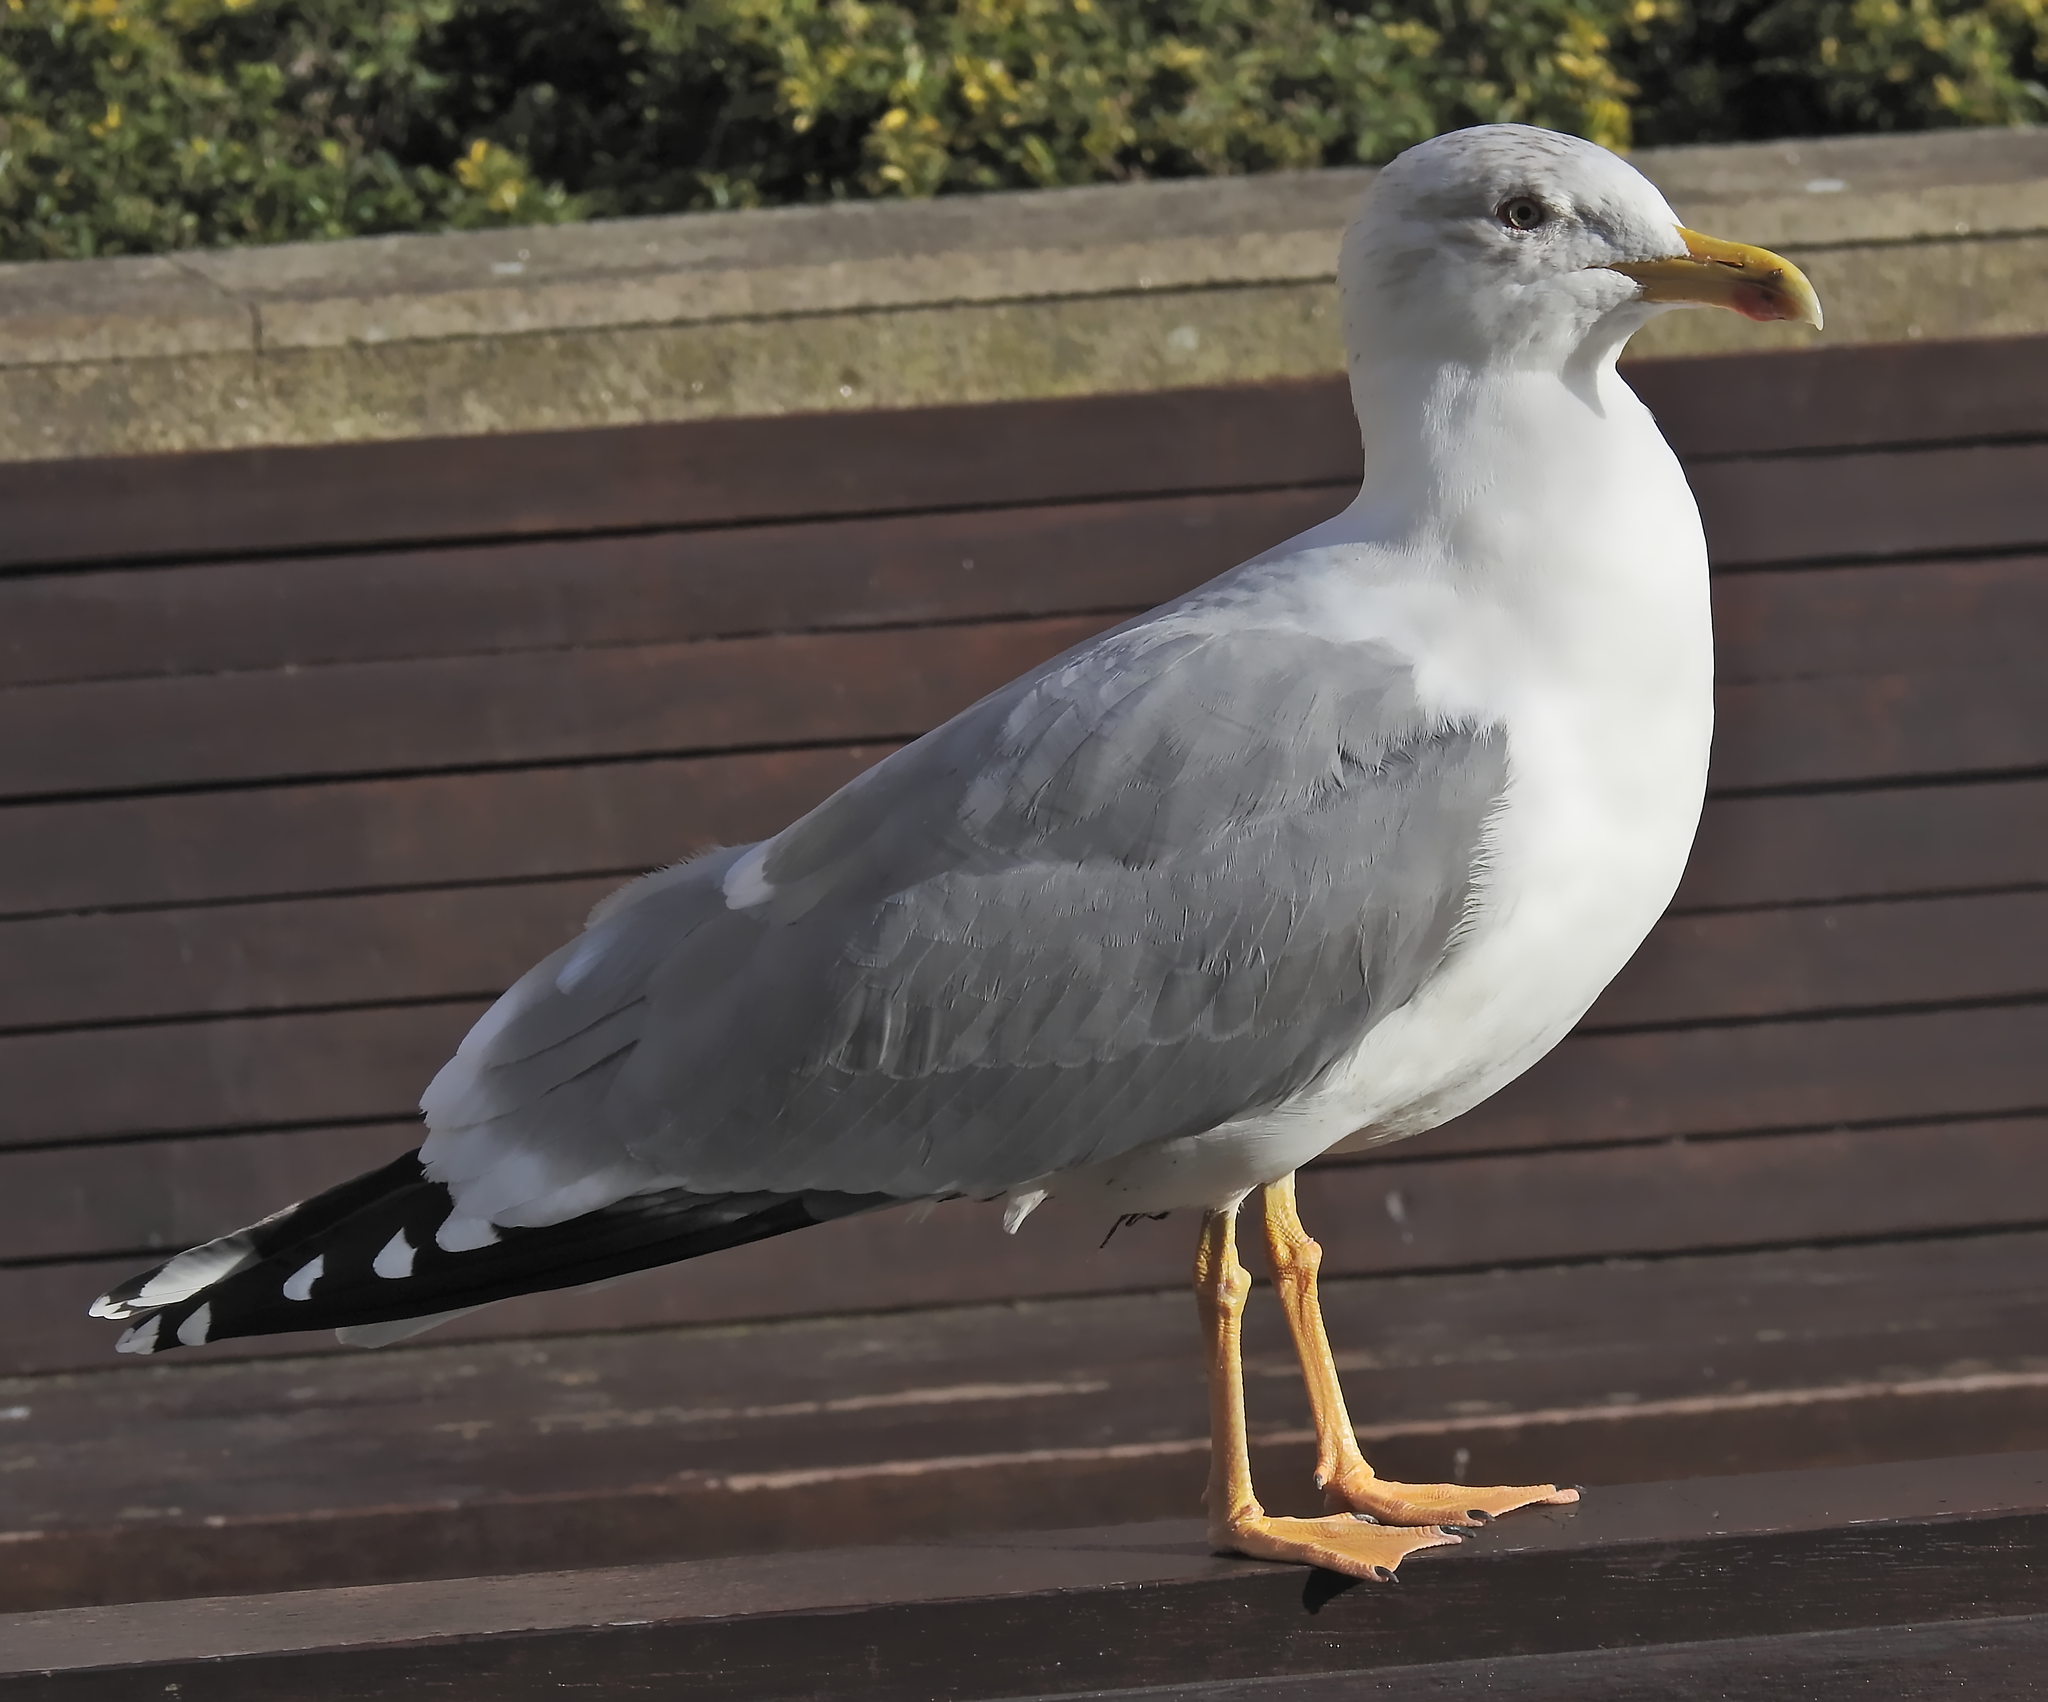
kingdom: Animalia
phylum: Chordata
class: Aves
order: Charadriiformes
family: Laridae
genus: Larus
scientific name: Larus michahellis
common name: Yellow-legged gull
